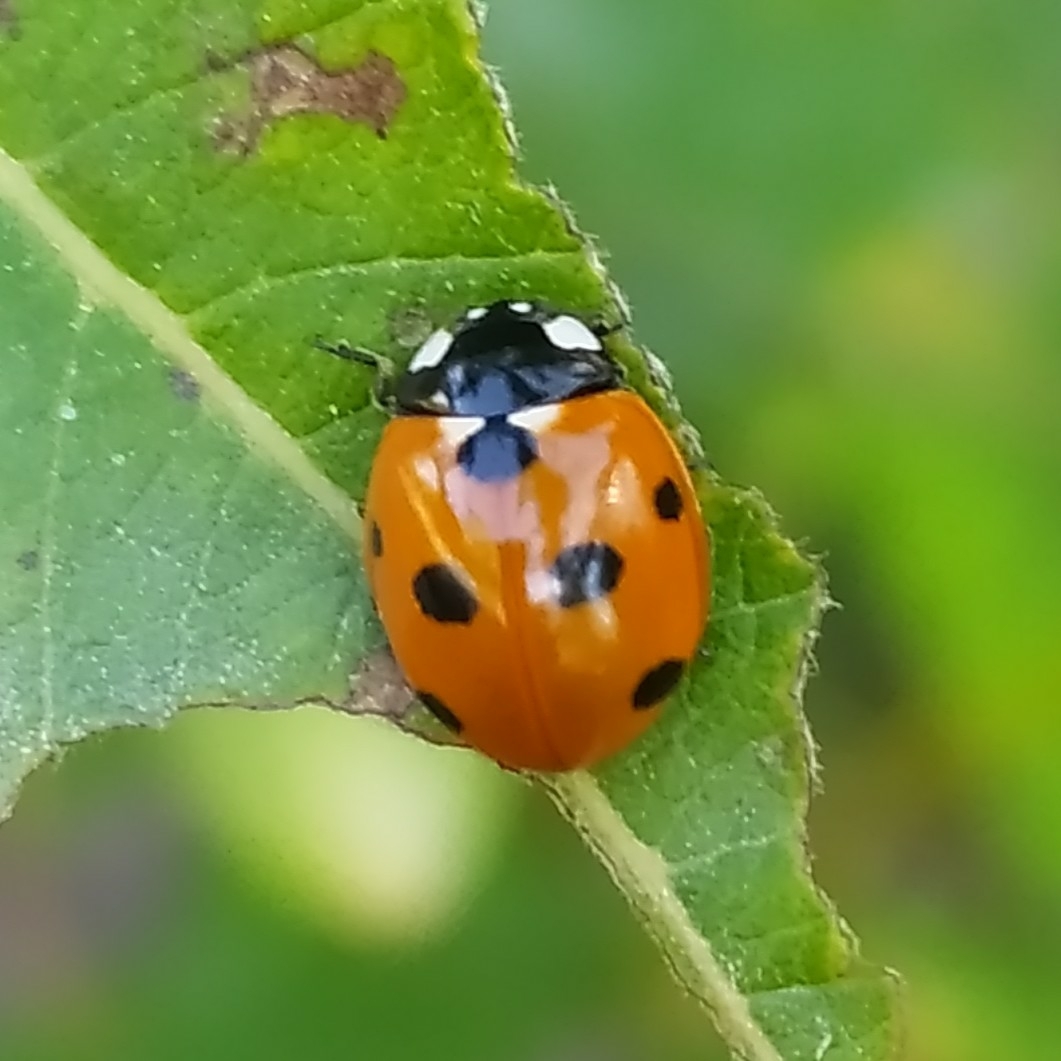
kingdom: Animalia
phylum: Arthropoda
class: Insecta
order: Coleoptera
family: Coccinellidae
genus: Coccinella
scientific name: Coccinella septempunctata
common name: Sevenspotted lady beetle
